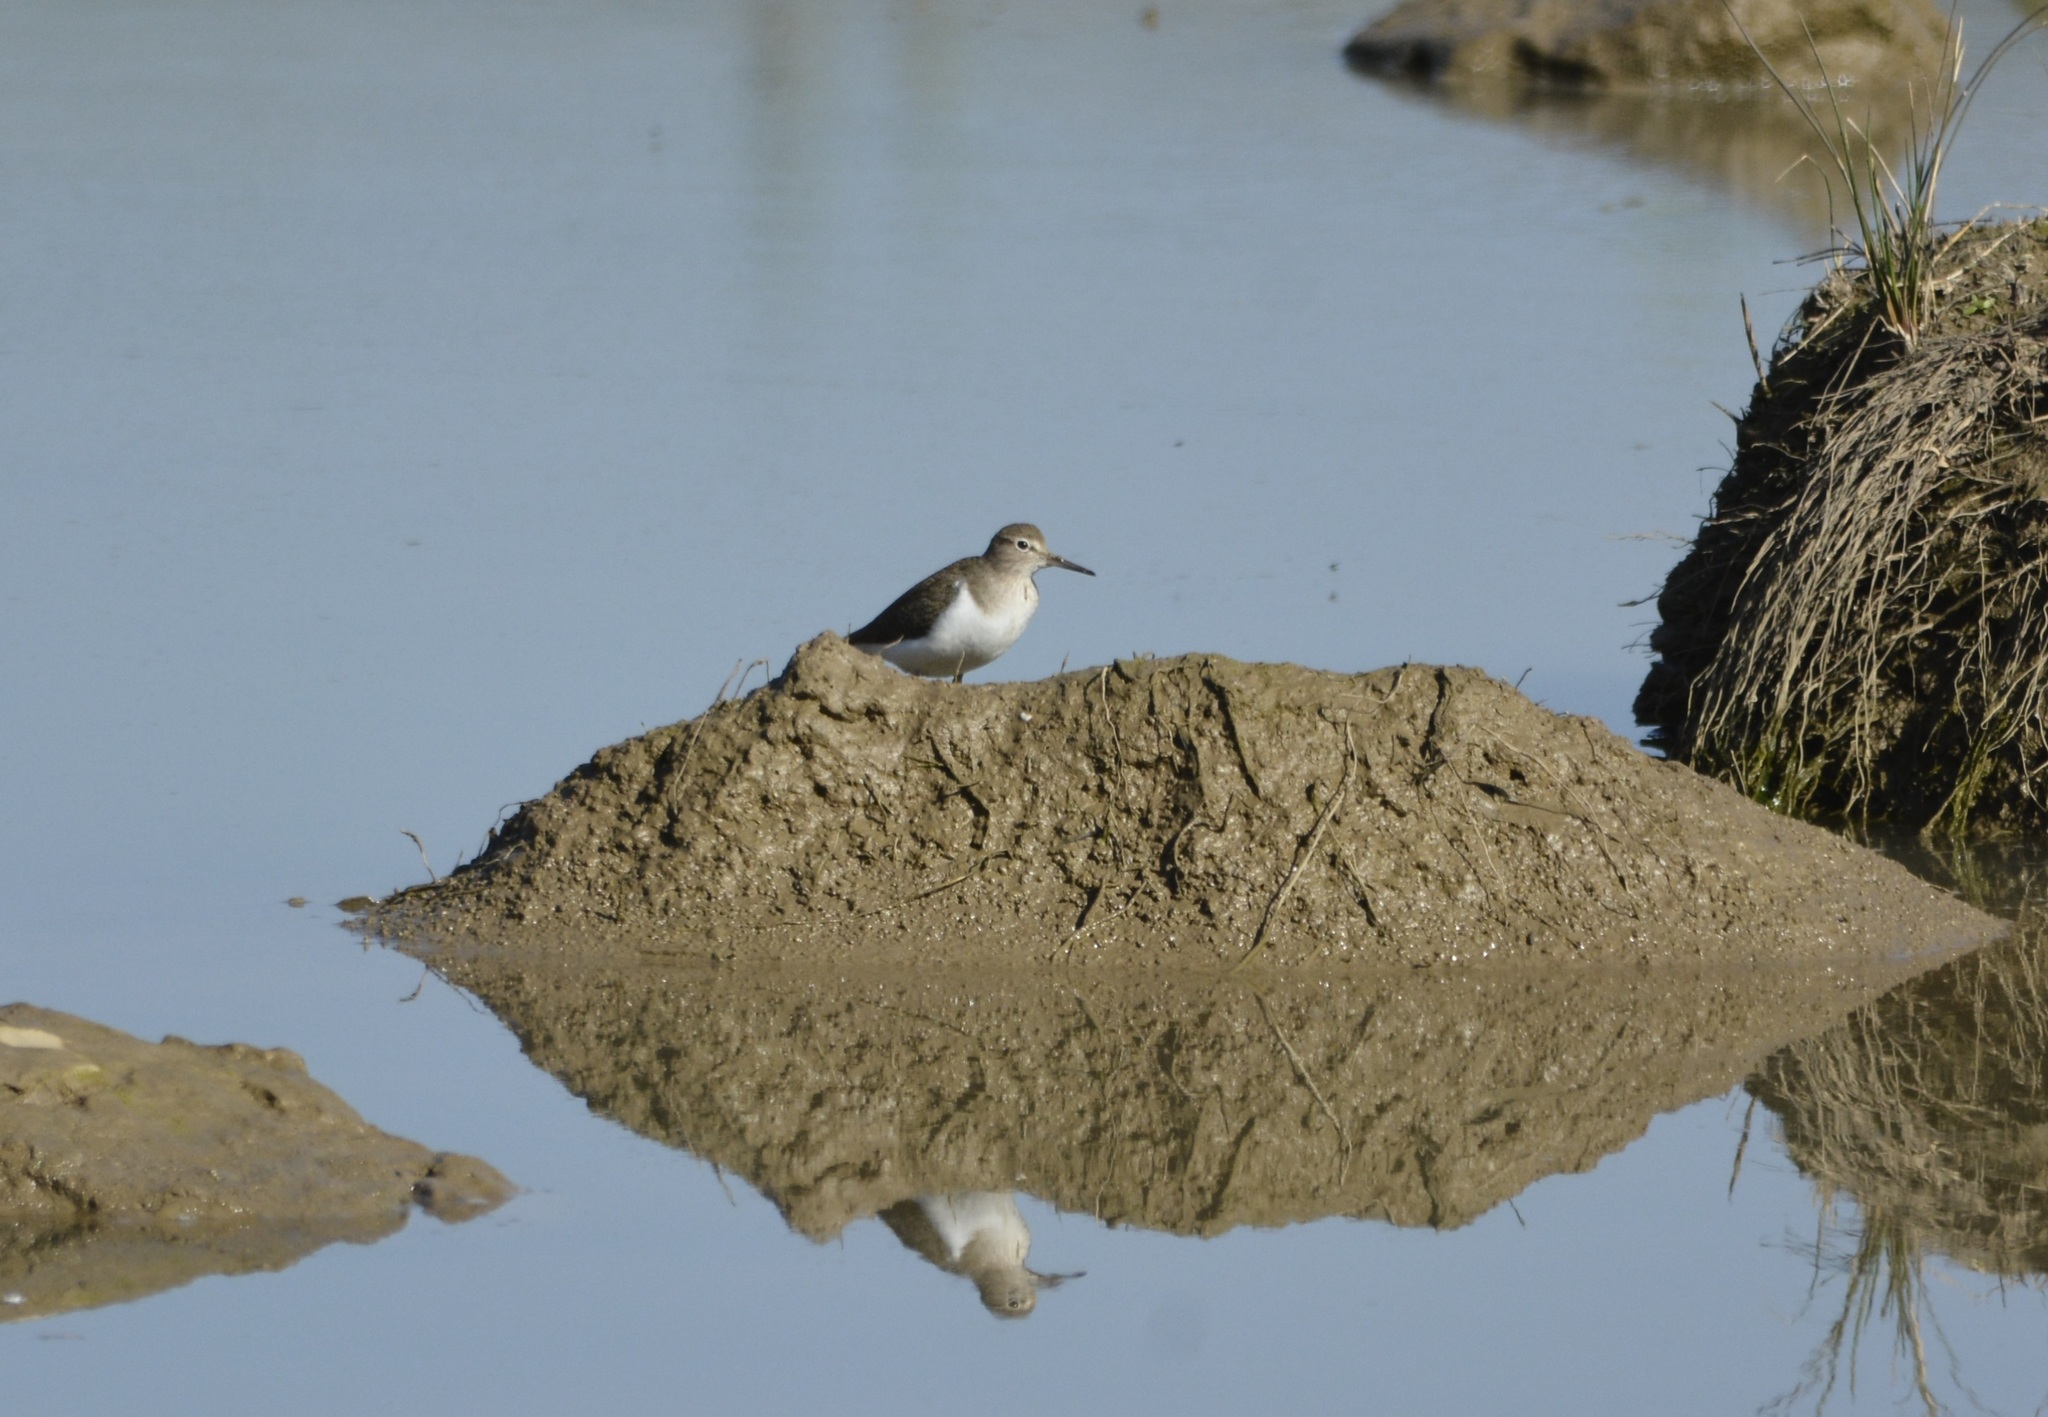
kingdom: Animalia
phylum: Chordata
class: Aves
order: Charadriiformes
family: Scolopacidae
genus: Actitis
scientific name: Actitis hypoleucos
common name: Common sandpiper
